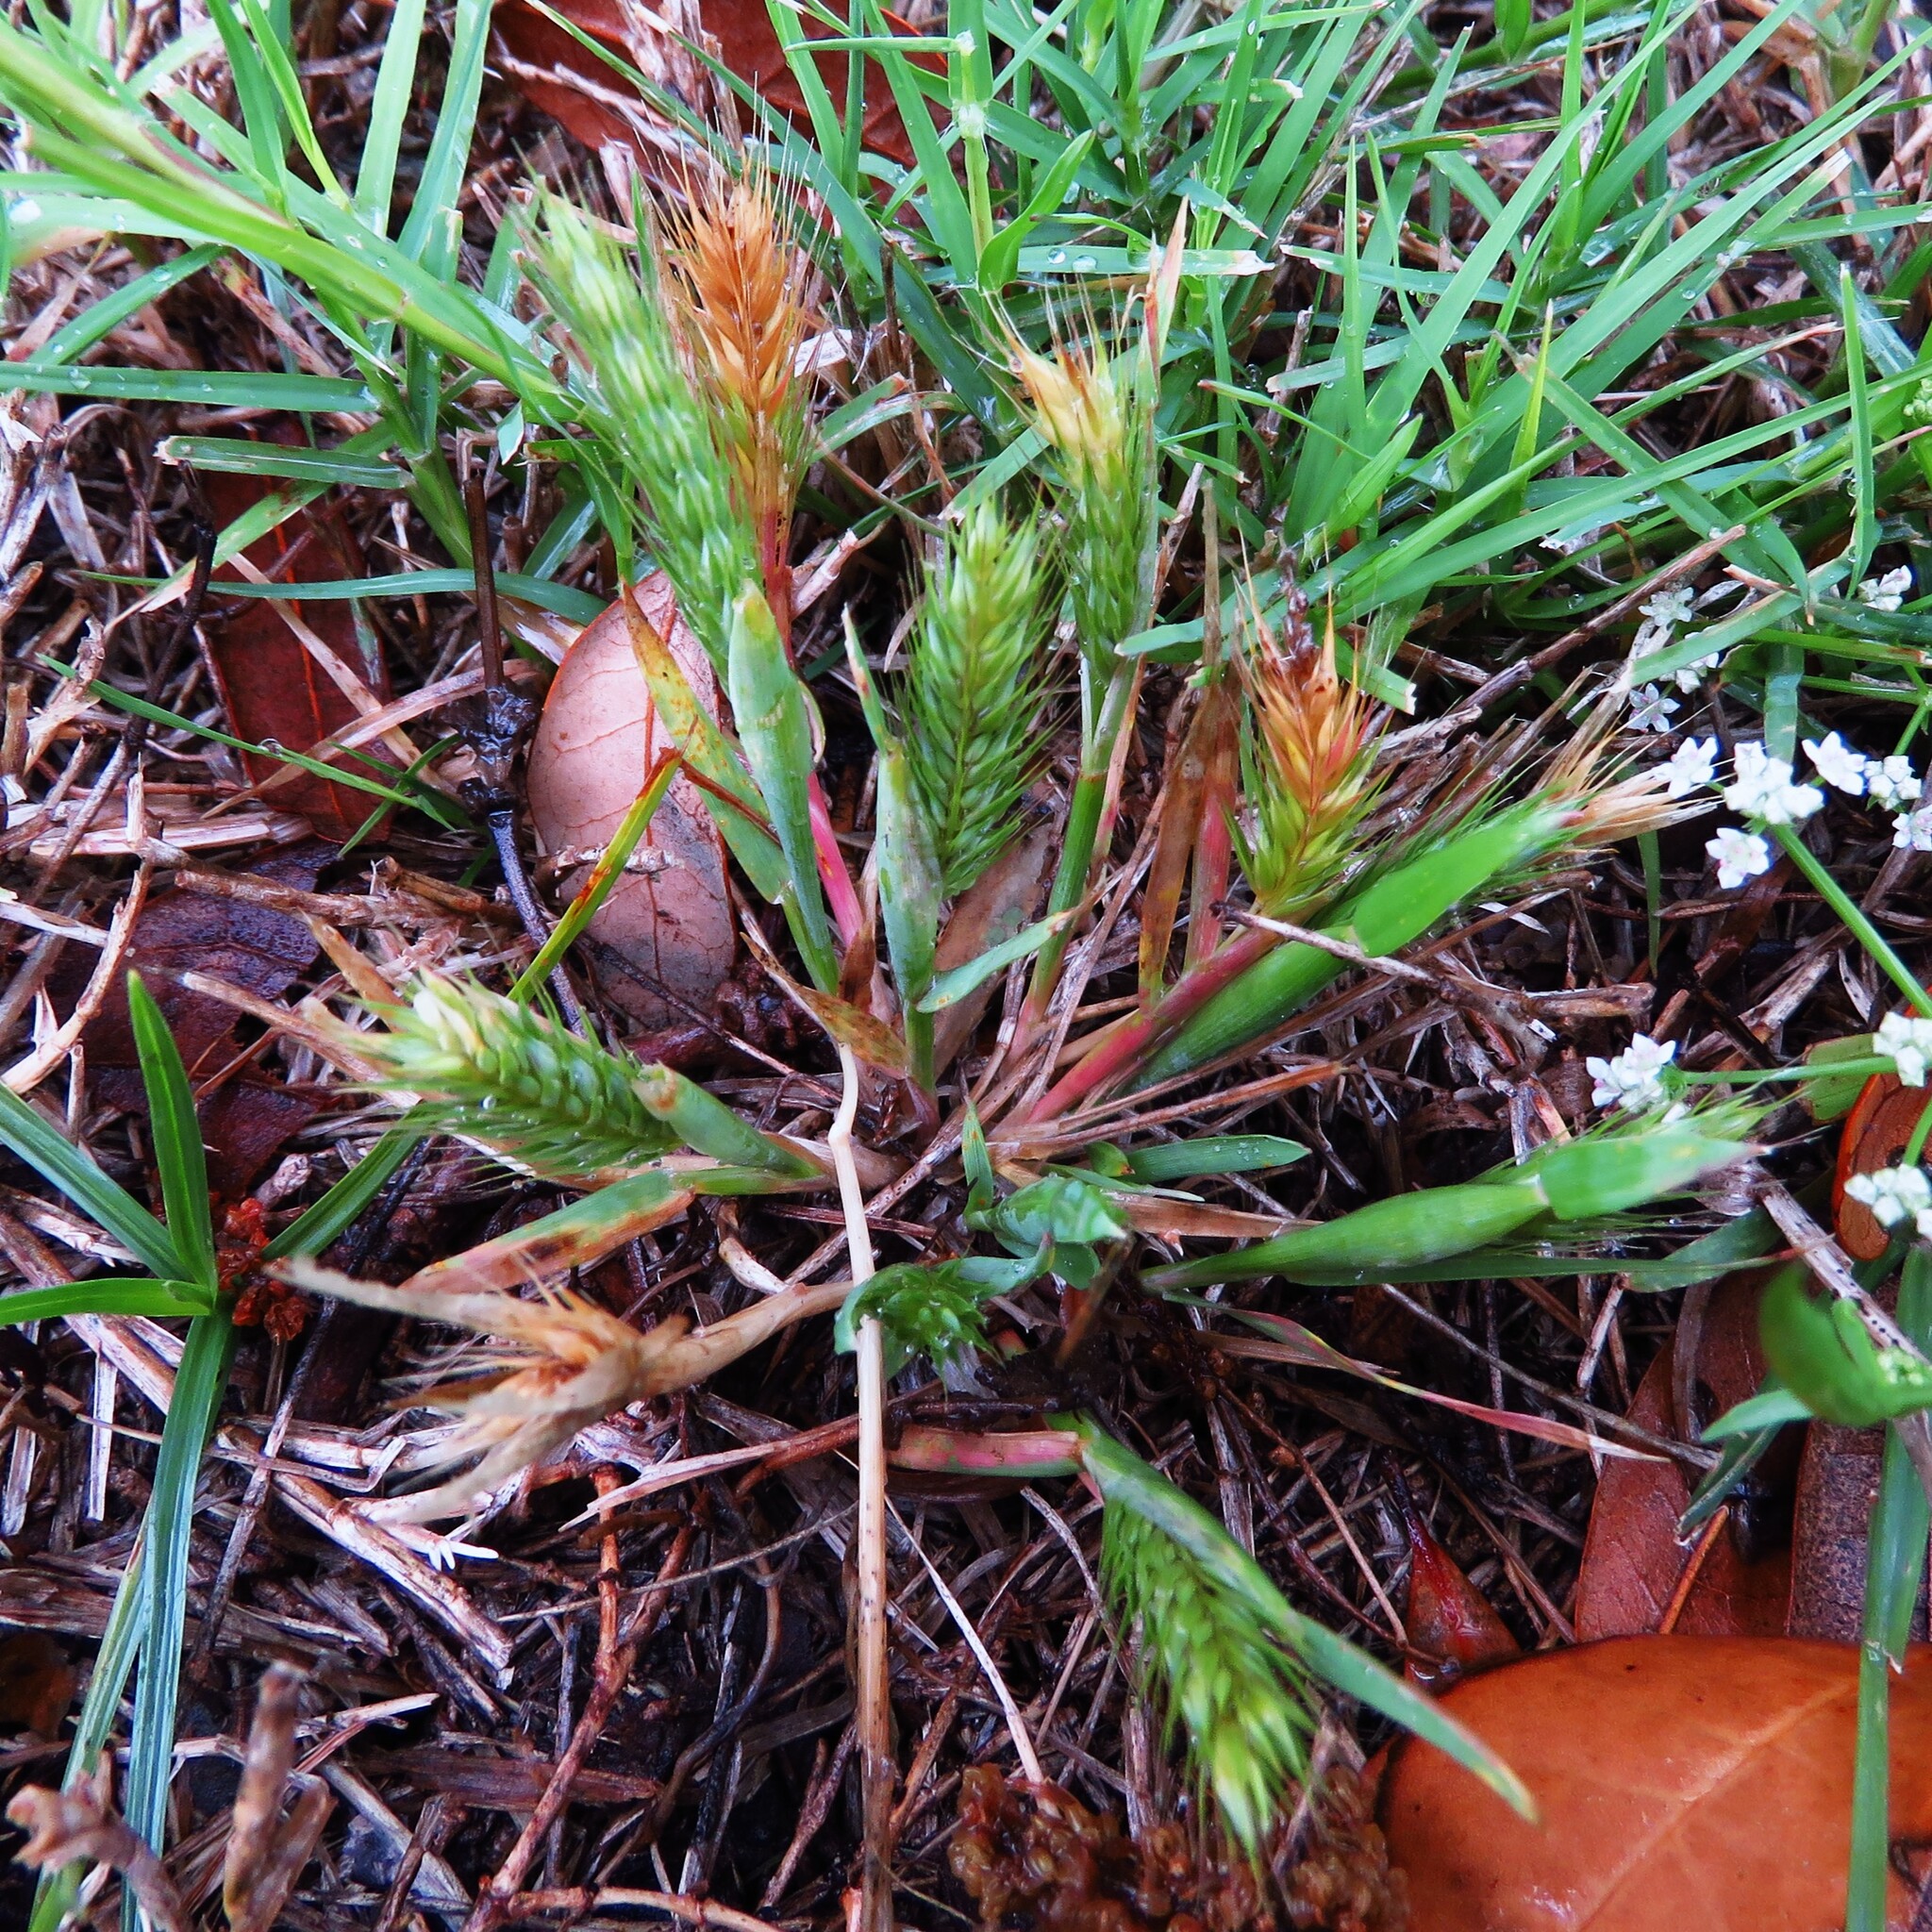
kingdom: Plantae
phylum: Tracheophyta
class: Liliopsida
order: Poales
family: Poaceae
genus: Hordeum
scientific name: Hordeum pusillum
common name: Little barley
